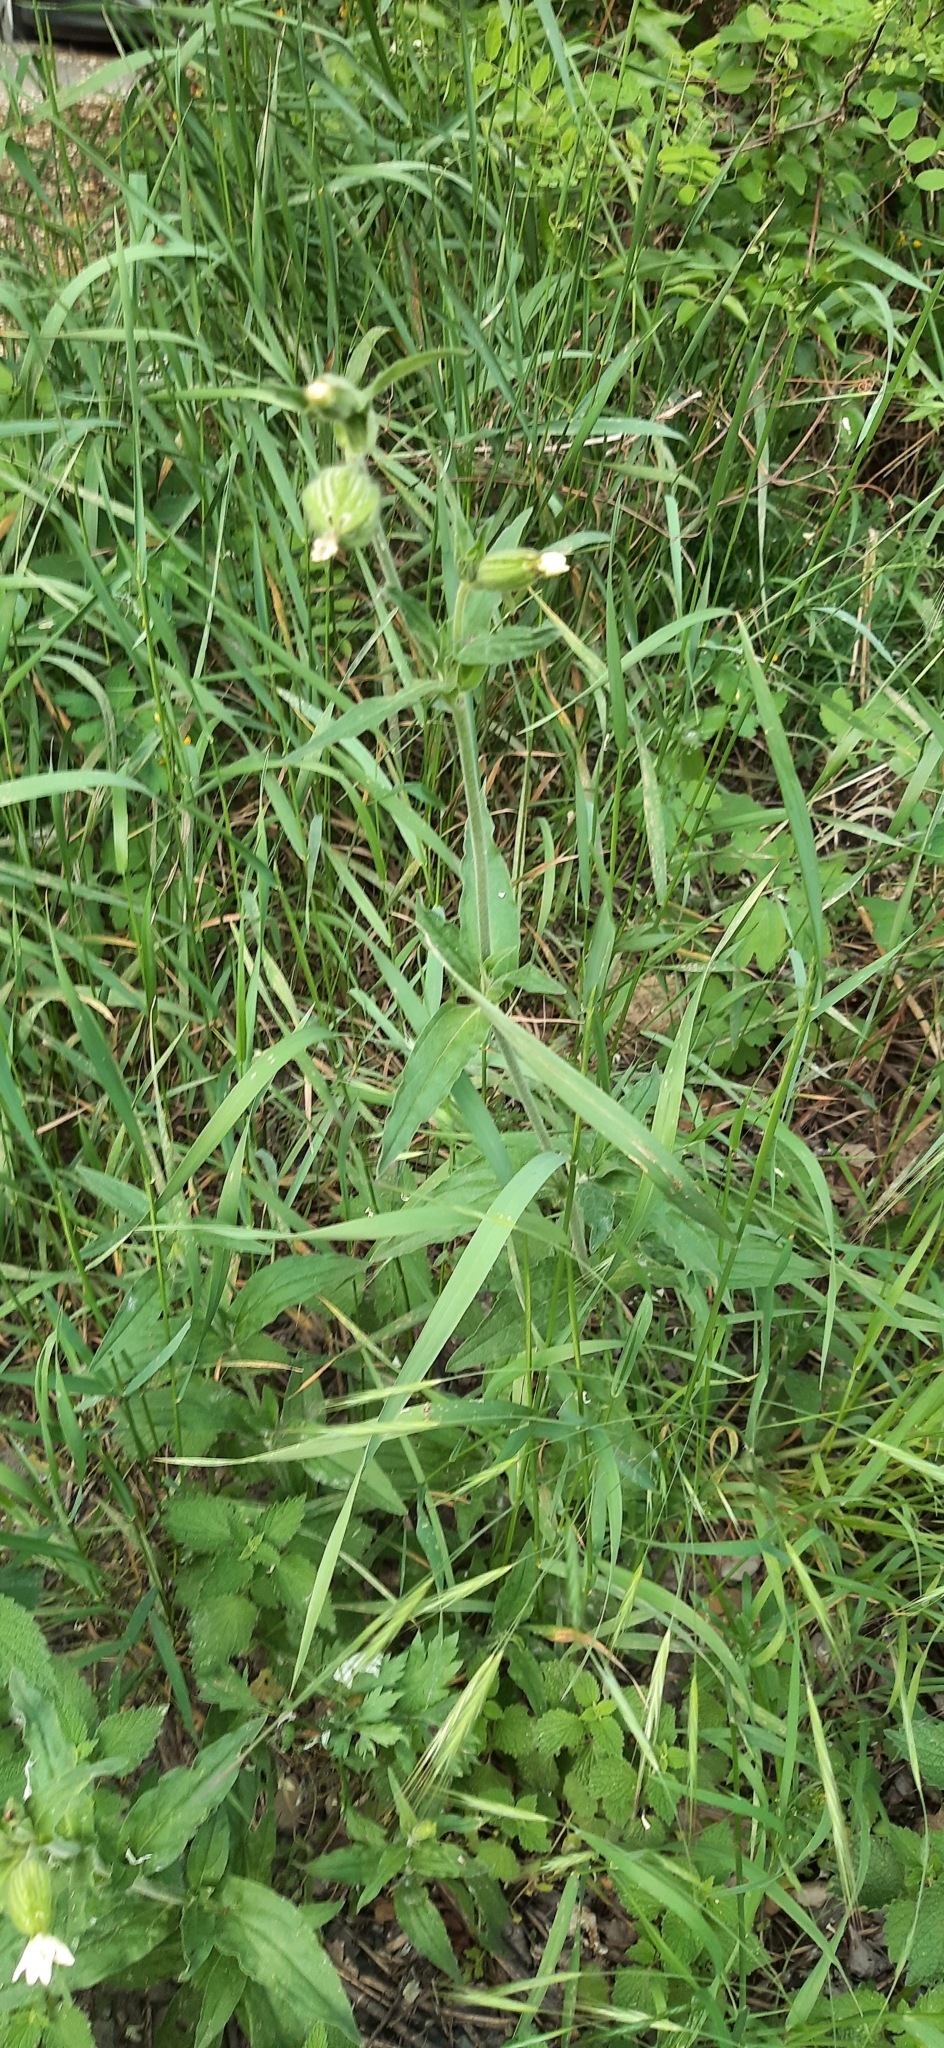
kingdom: Plantae
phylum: Tracheophyta
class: Magnoliopsida
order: Caryophyllales
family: Caryophyllaceae
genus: Silene
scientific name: Silene latifolia
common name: White campion
